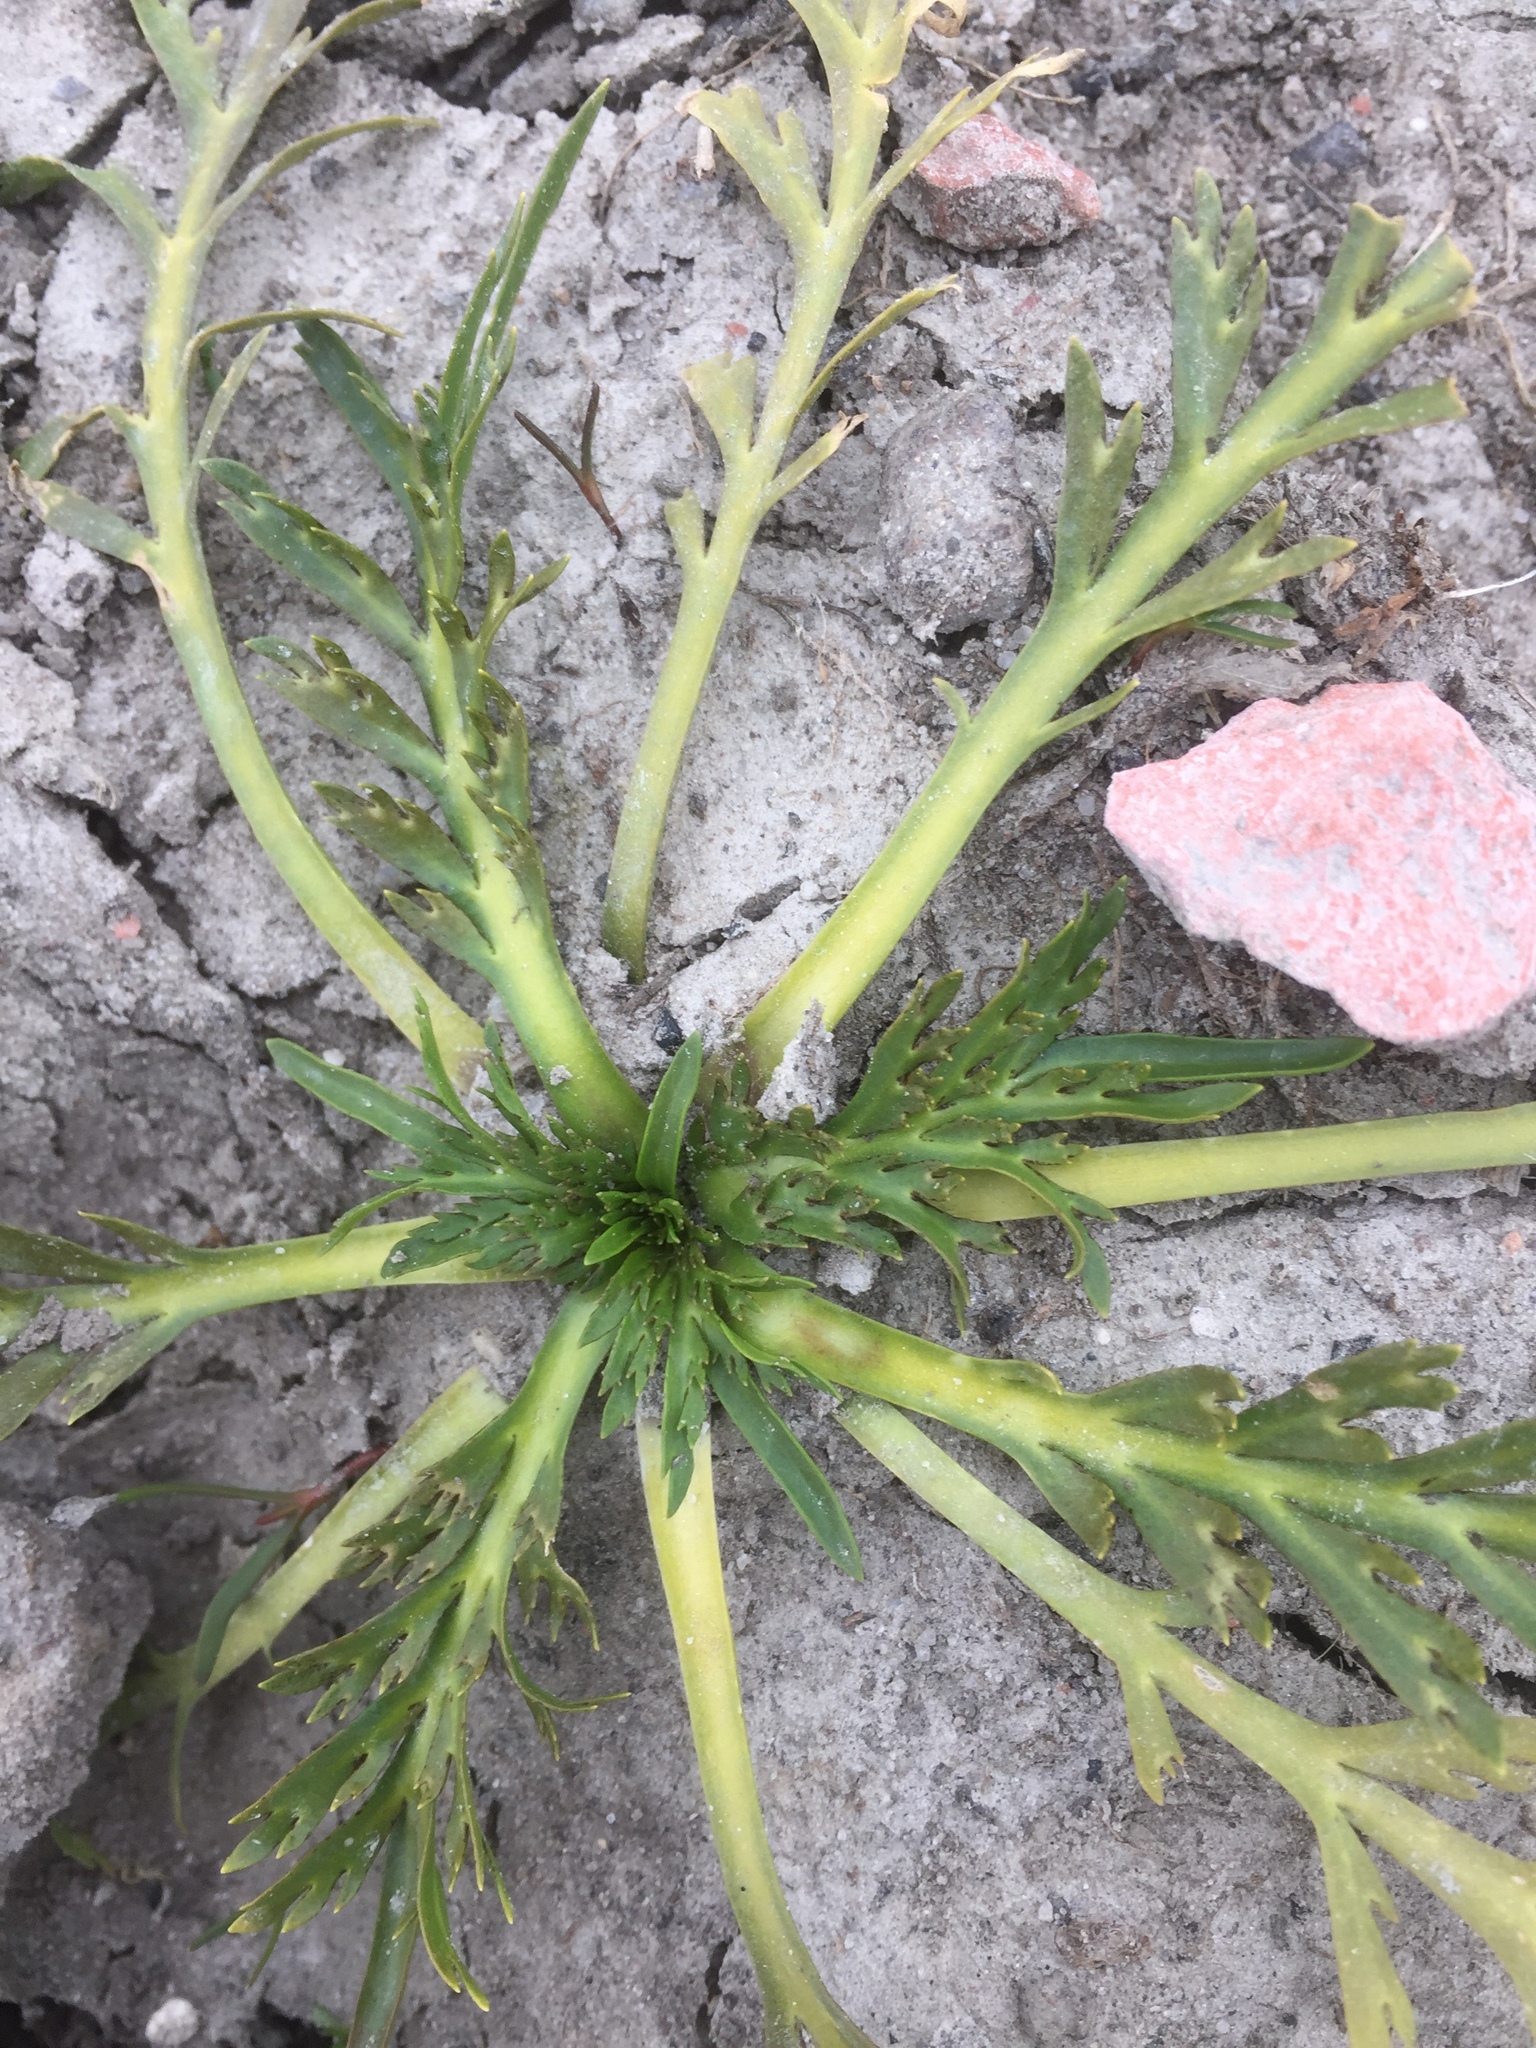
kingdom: Plantae
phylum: Tracheophyta
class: Magnoliopsida
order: Lamiales
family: Plantaginaceae
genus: Plantago
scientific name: Plantago coronopus
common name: Buck's-horn plantain
